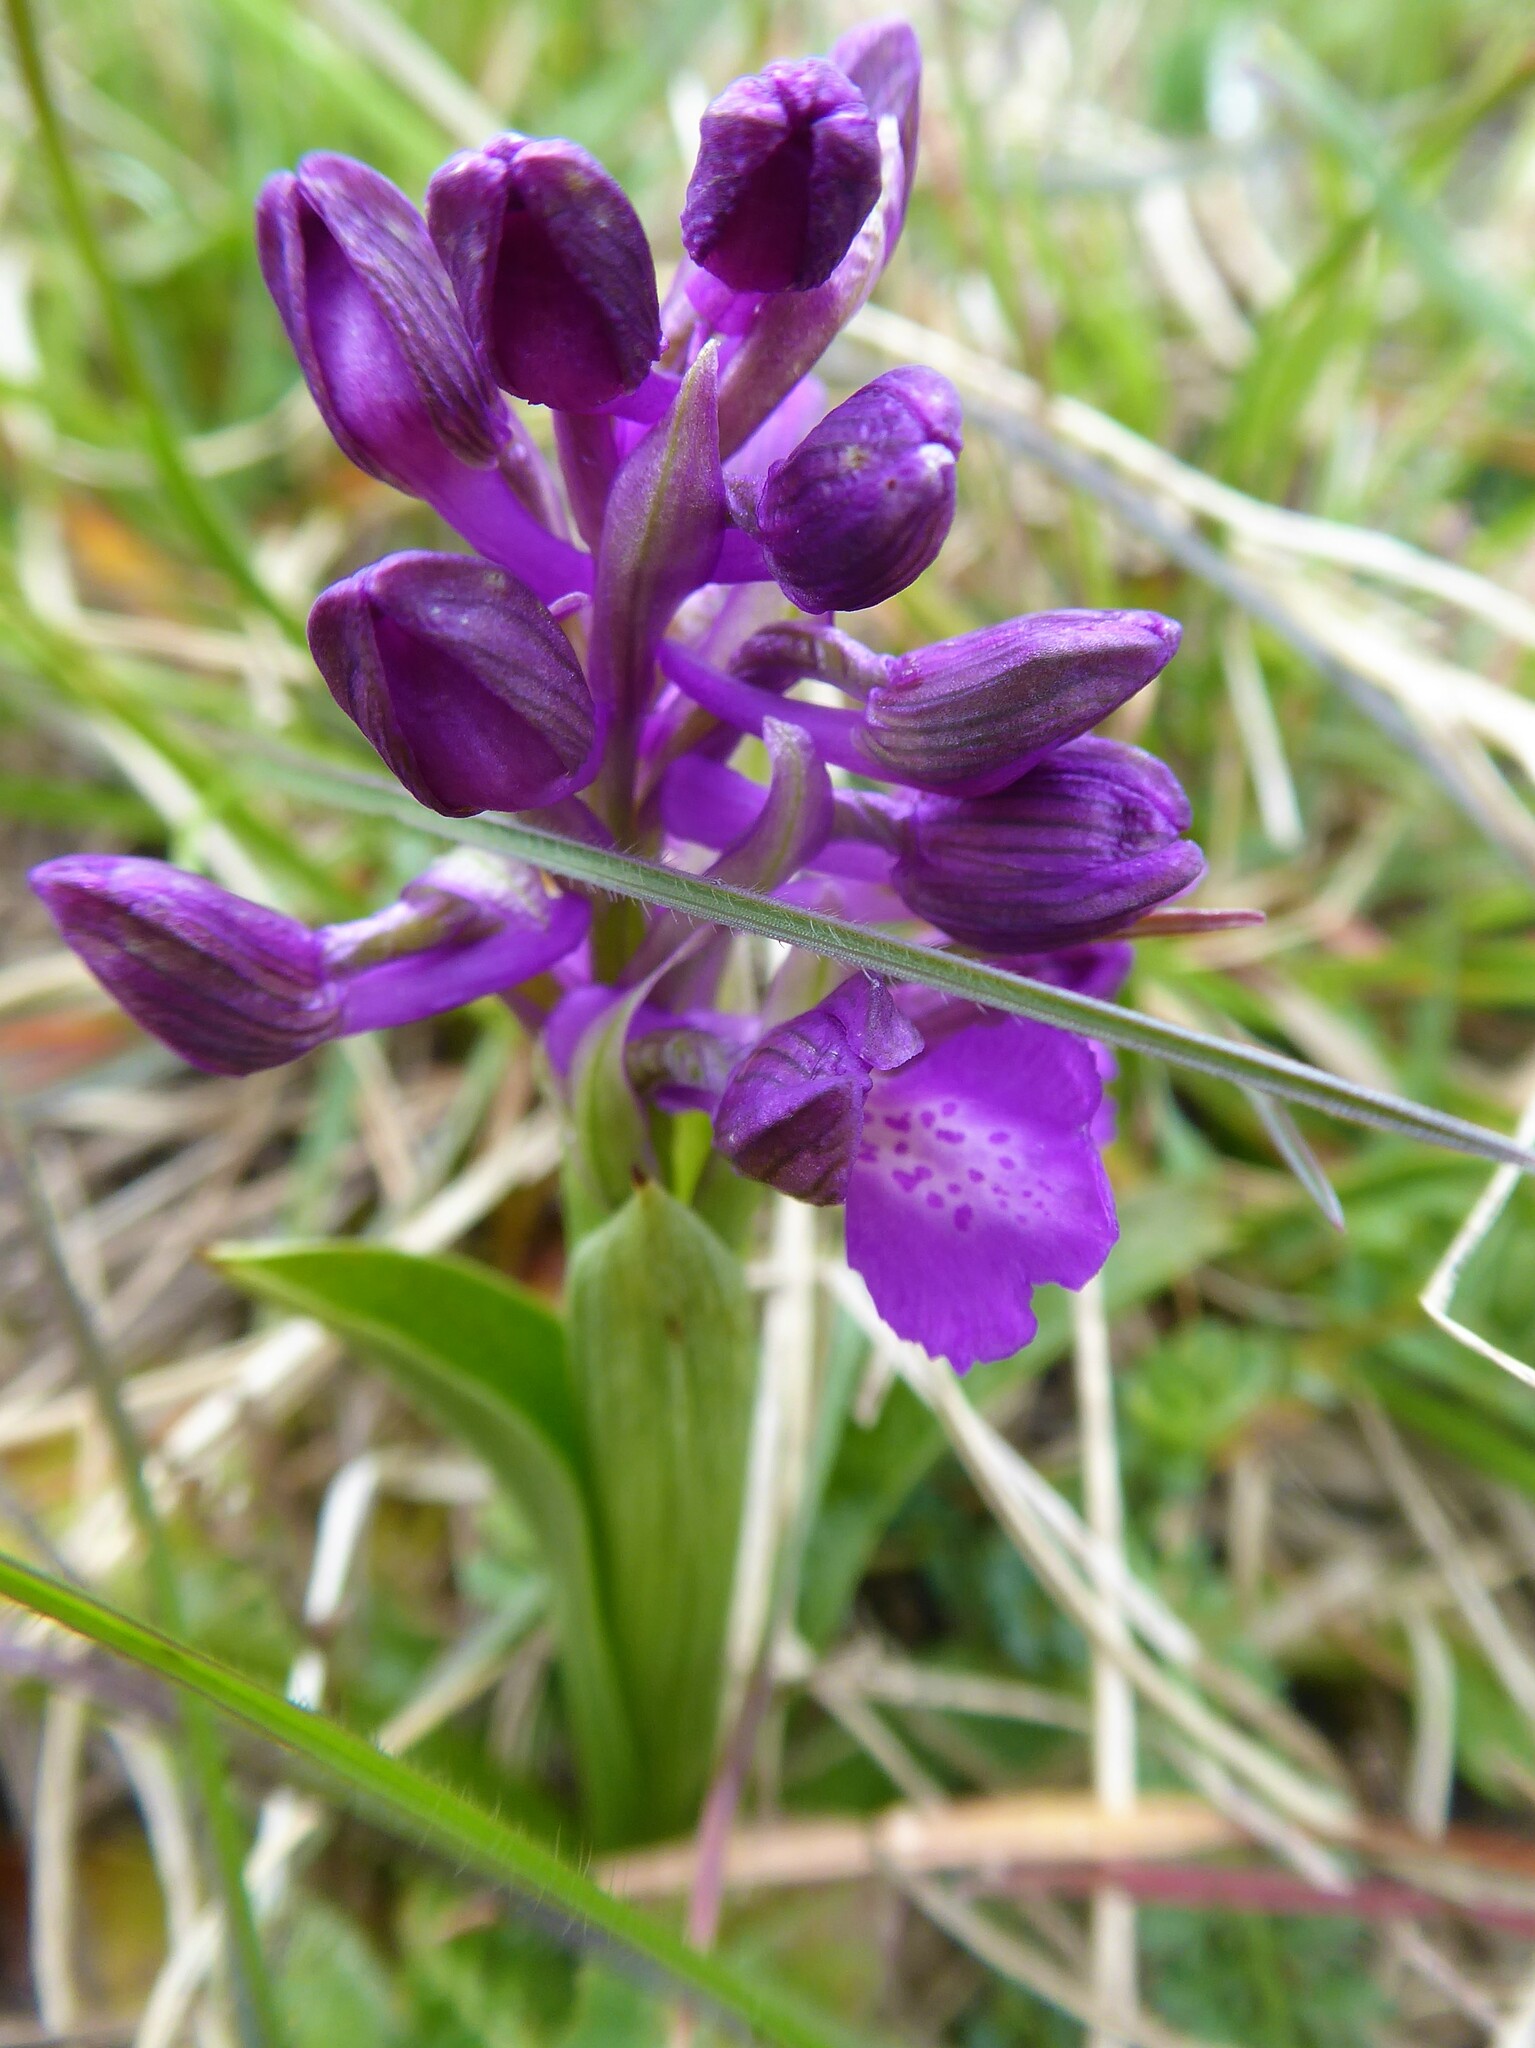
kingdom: Plantae
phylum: Tracheophyta
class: Liliopsida
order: Asparagales
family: Orchidaceae
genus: Anacamptis
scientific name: Anacamptis morio
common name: Green-winged orchid
